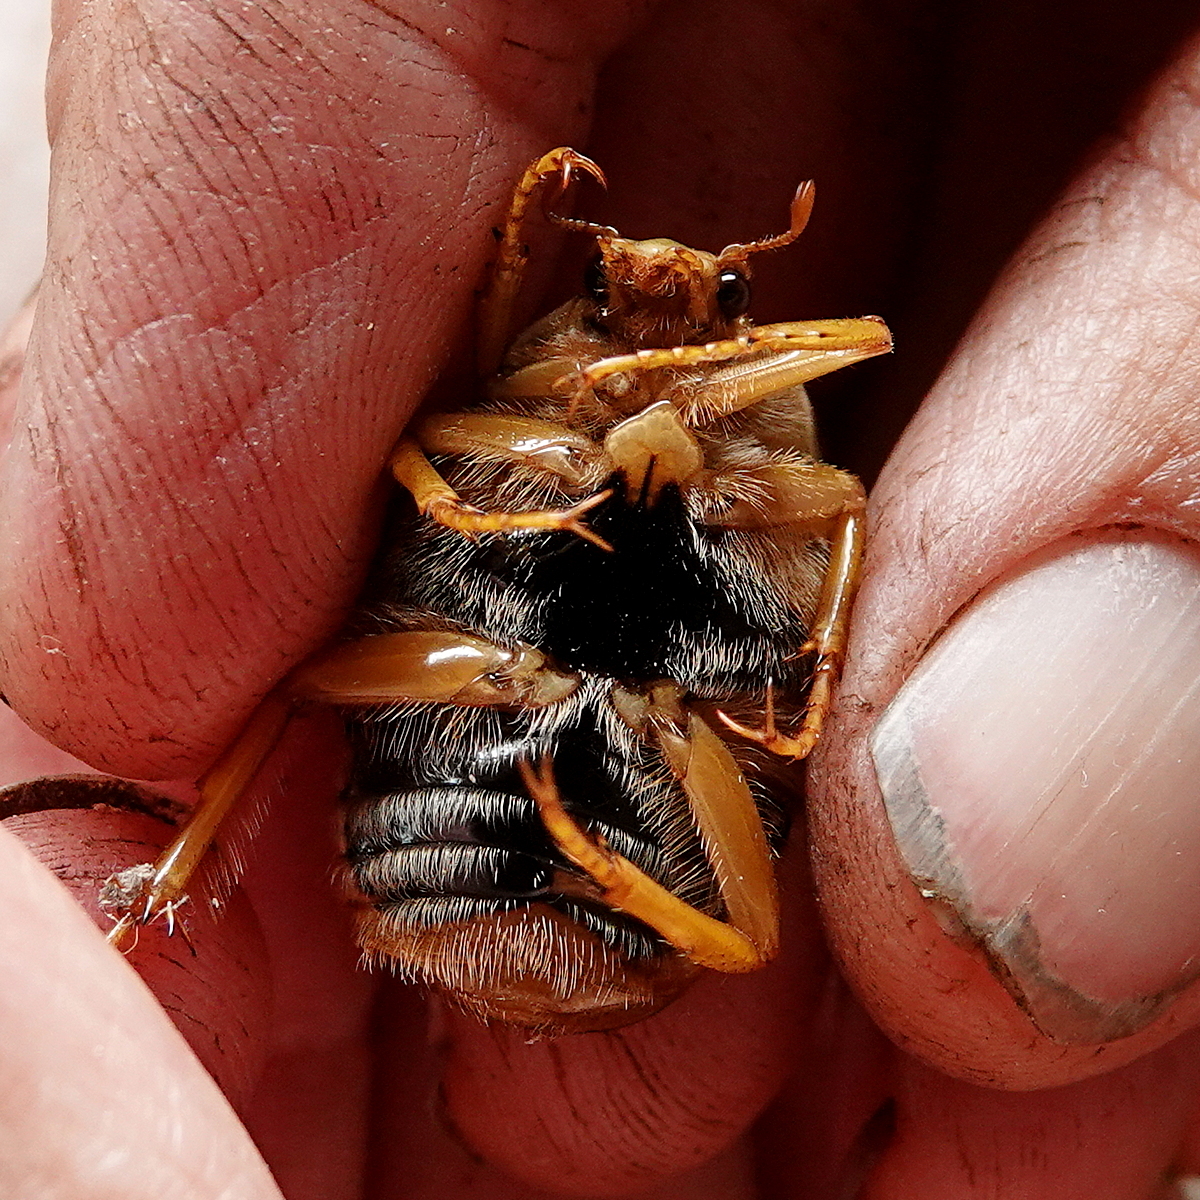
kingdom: Animalia
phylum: Arthropoda
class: Insecta
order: Coleoptera
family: Scarabaeidae
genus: Schizorhina
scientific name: Schizorhina atropunctata
